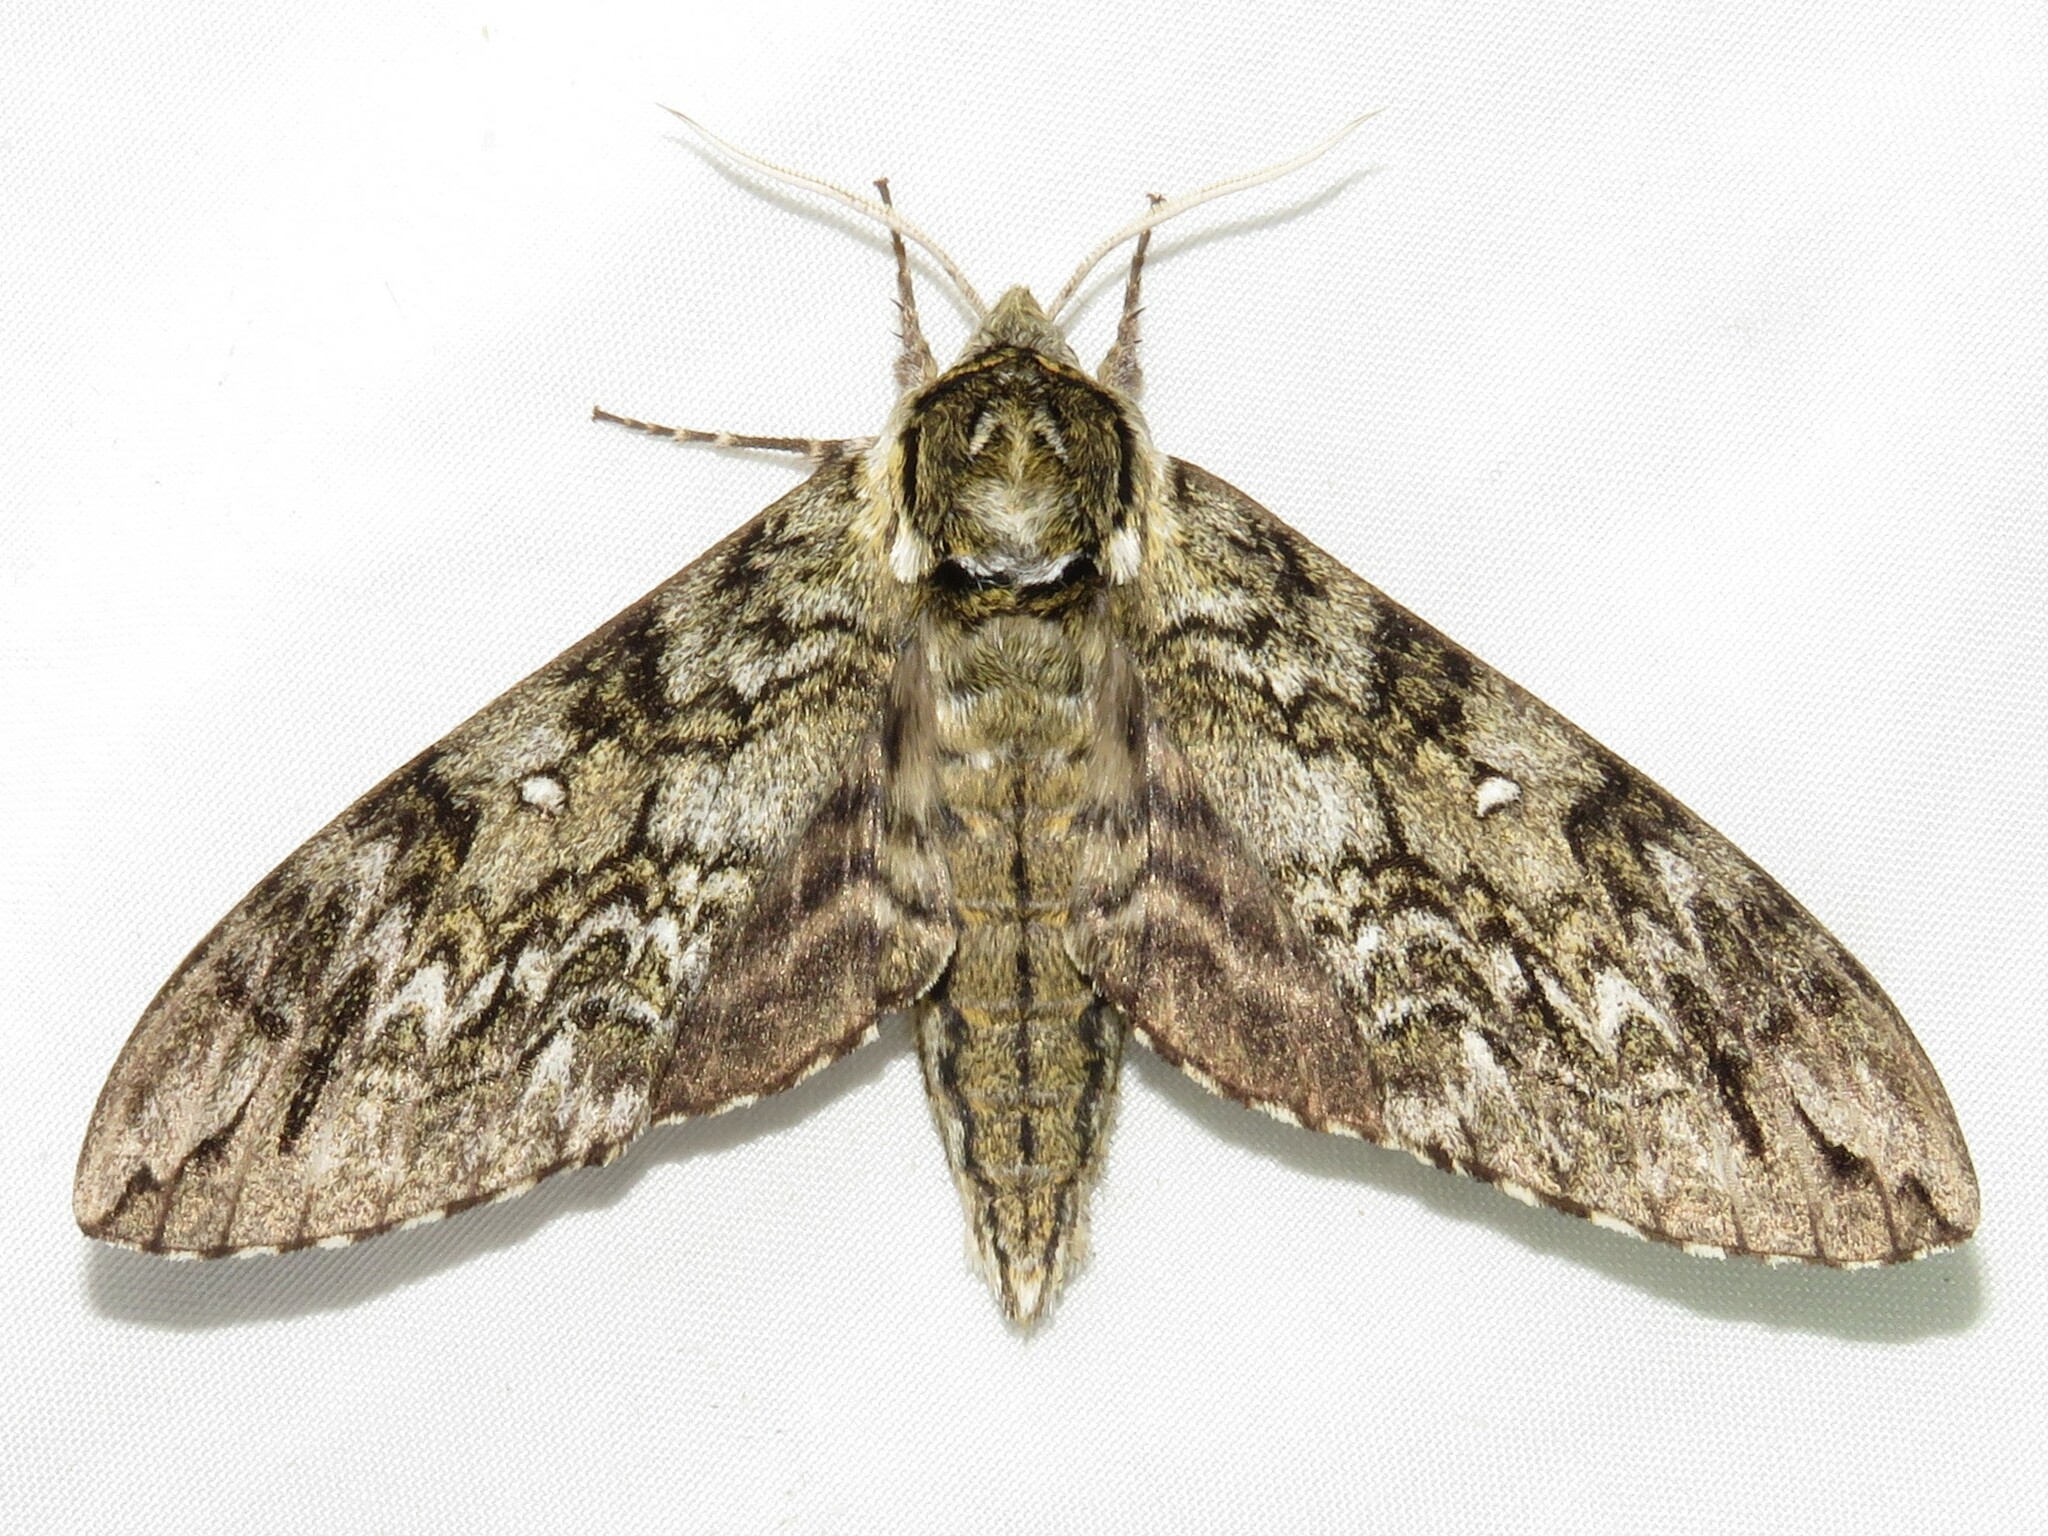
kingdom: Animalia
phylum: Arthropoda
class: Insecta
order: Lepidoptera
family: Sphingidae
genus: Ceratomia
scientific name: Ceratomia undulosa
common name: Waved sphinx
